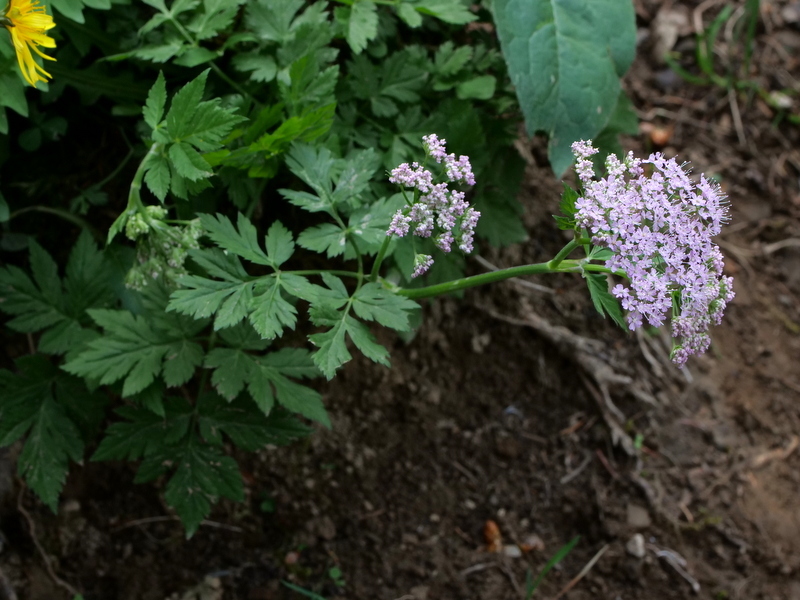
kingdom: Plantae
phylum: Tracheophyta
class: Magnoliopsida
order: Apiales
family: Apiaceae
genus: Chaerophyllum
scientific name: Chaerophyllum hirsutum
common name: Hairy chervil
